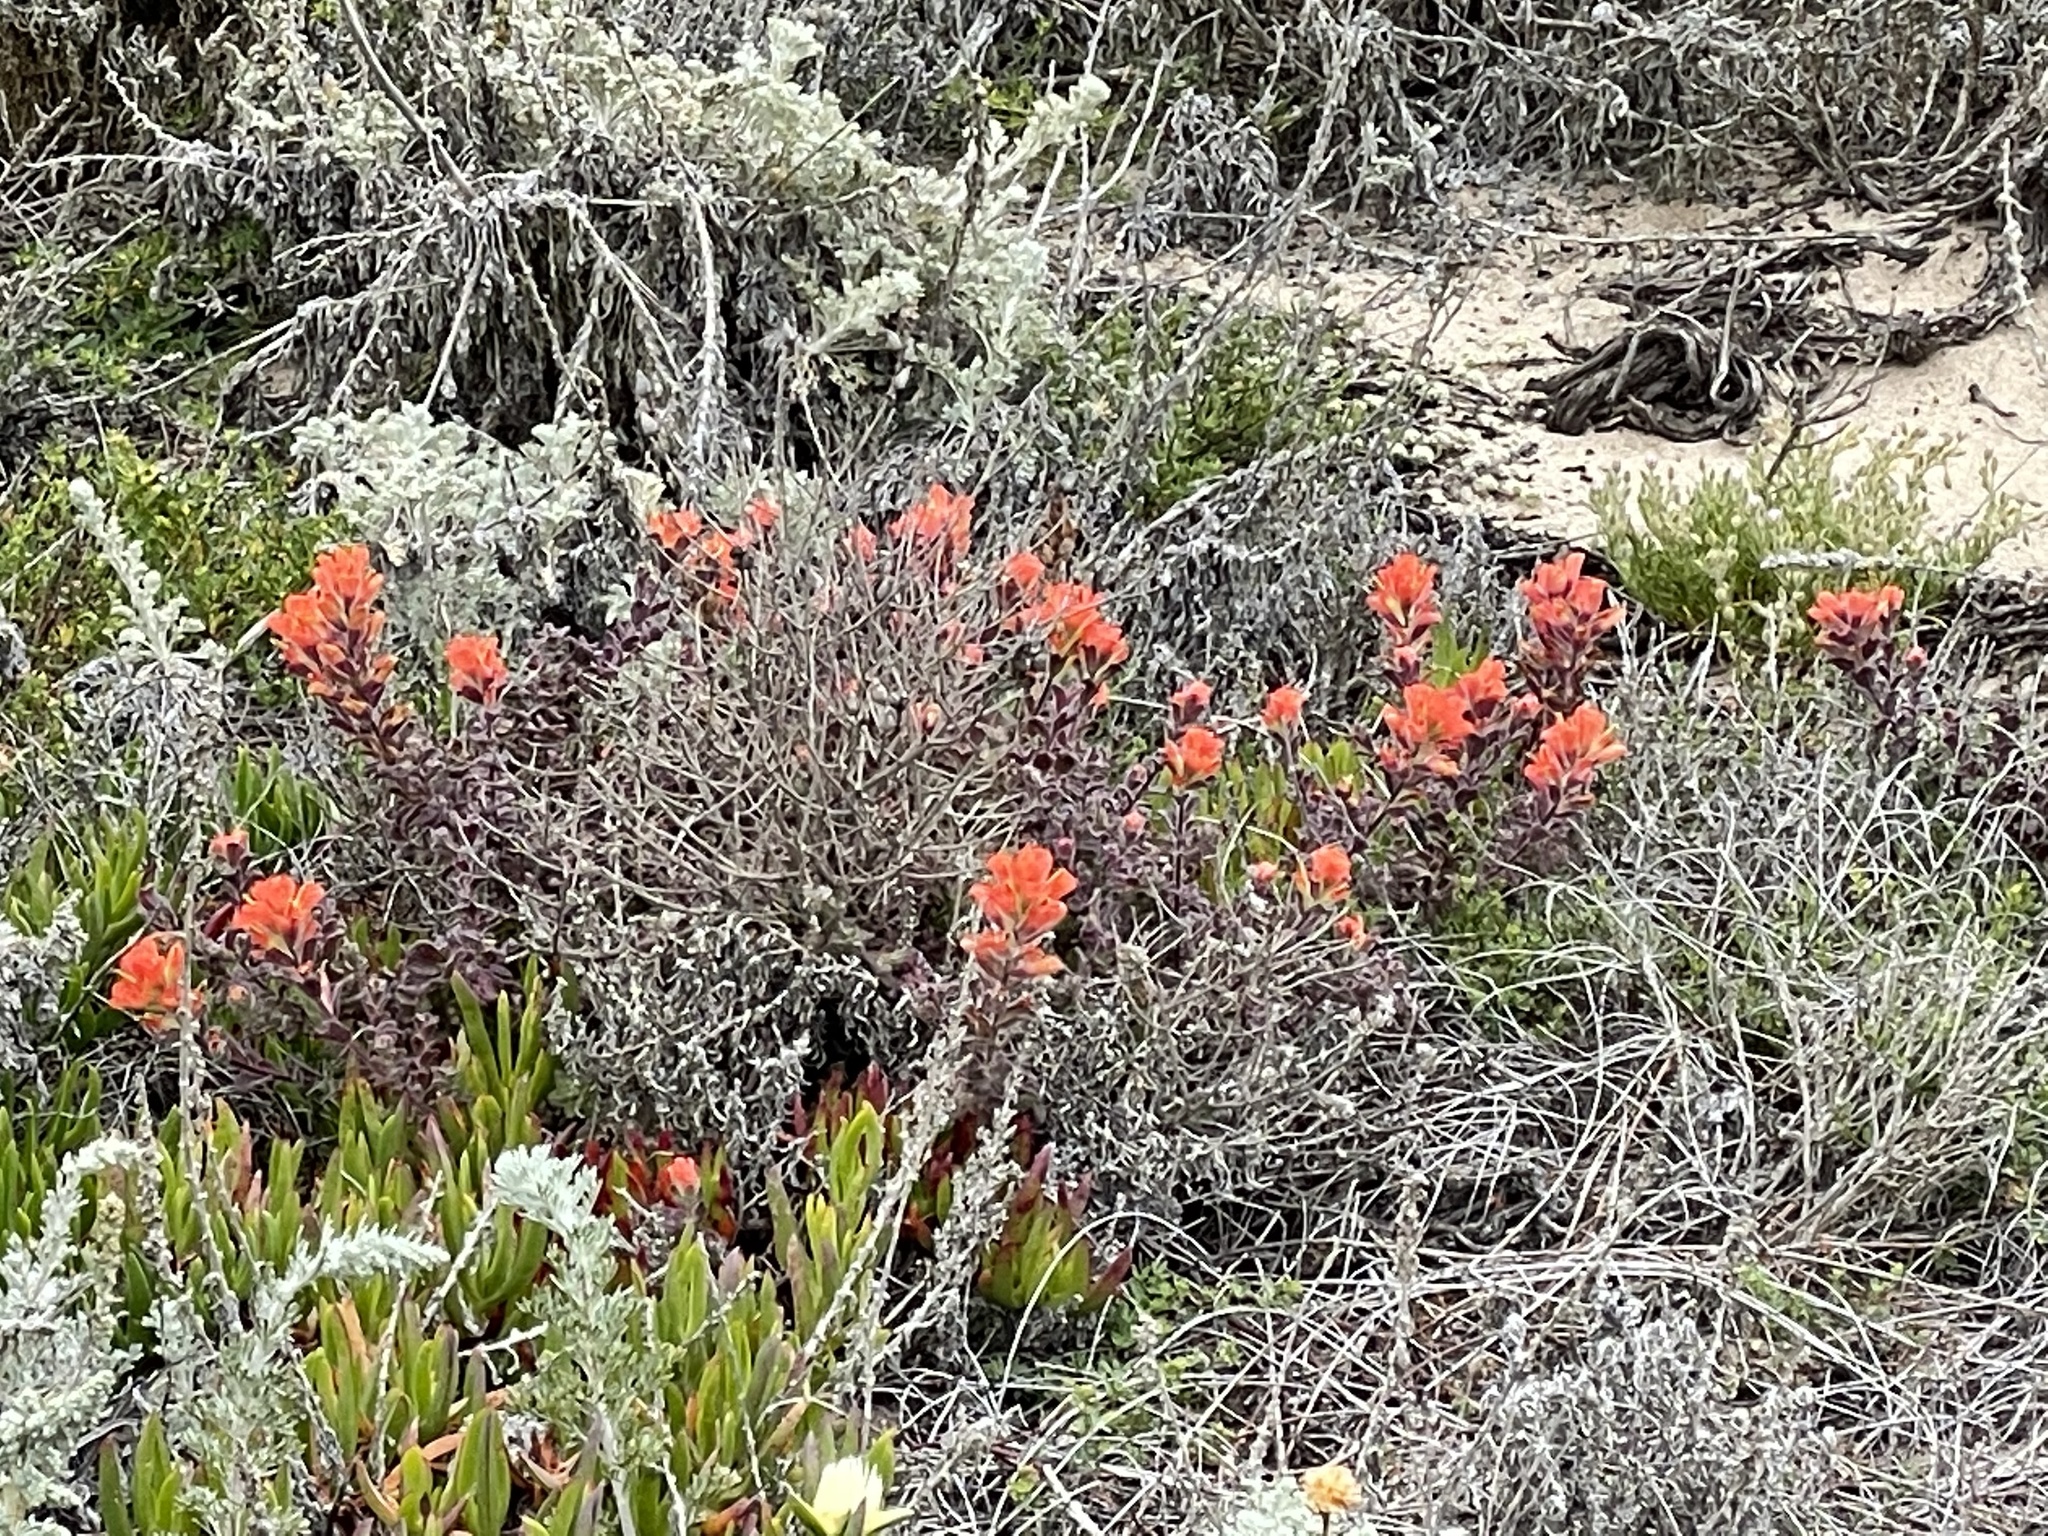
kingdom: Plantae
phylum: Tracheophyta
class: Magnoliopsida
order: Lamiales
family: Orobanchaceae
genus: Castilleja
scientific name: Castilleja latifolia
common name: Monterey indian paintbrush
